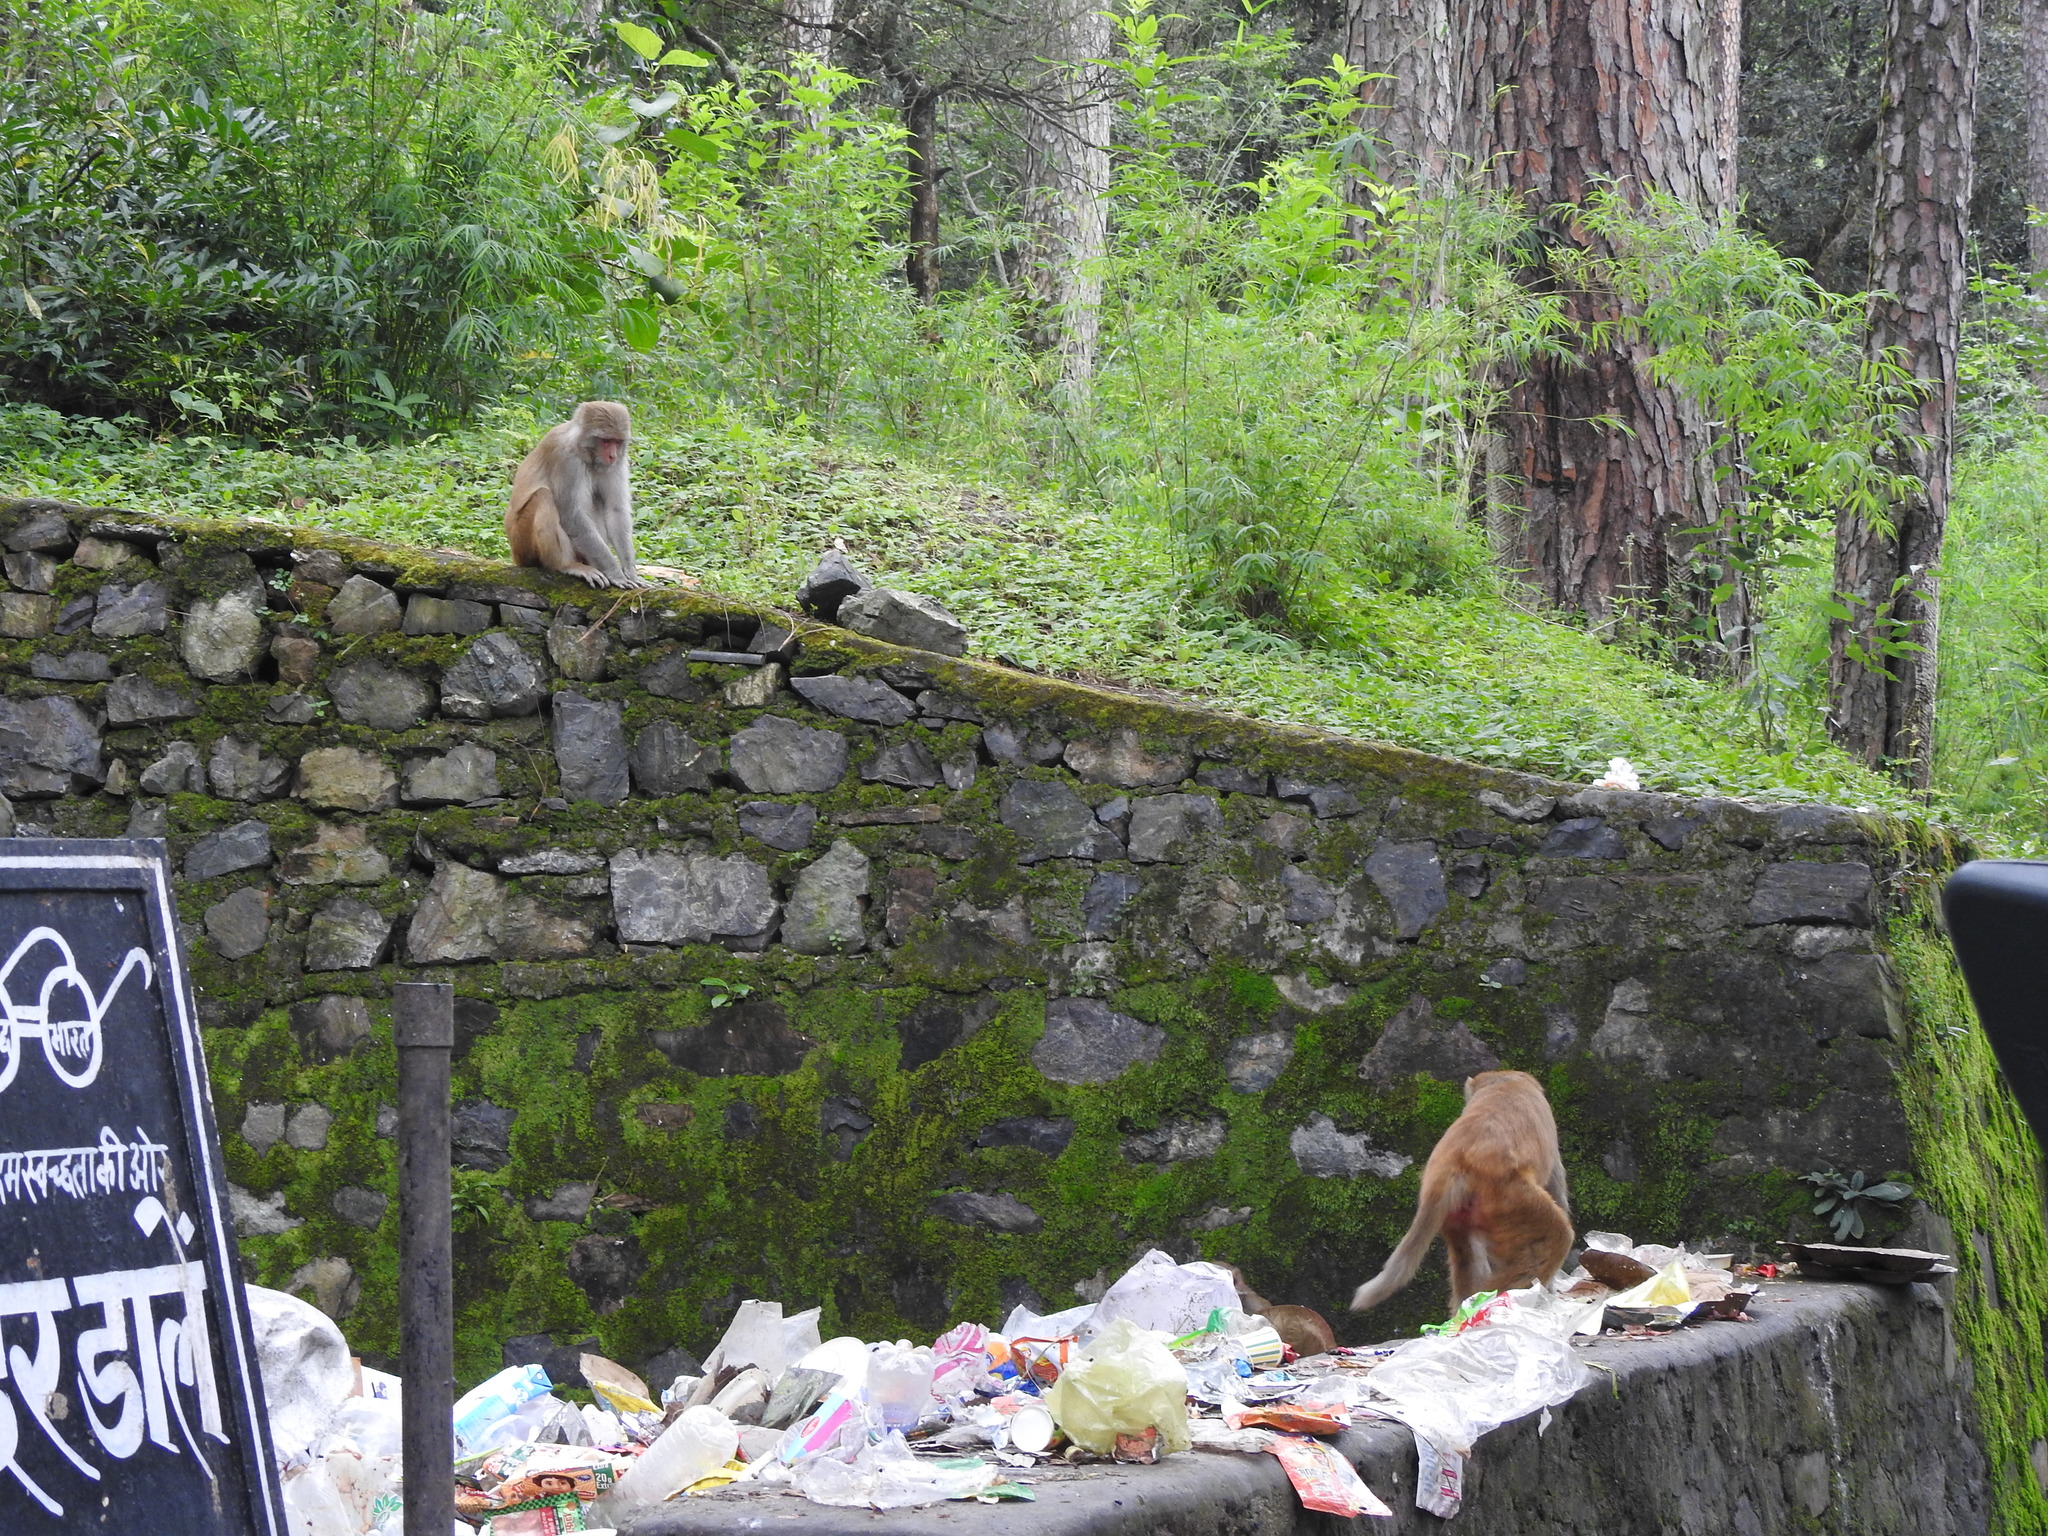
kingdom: Animalia
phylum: Chordata
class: Mammalia
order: Primates
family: Cercopithecidae
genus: Macaca
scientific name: Macaca mulatta
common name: Rhesus monkey
